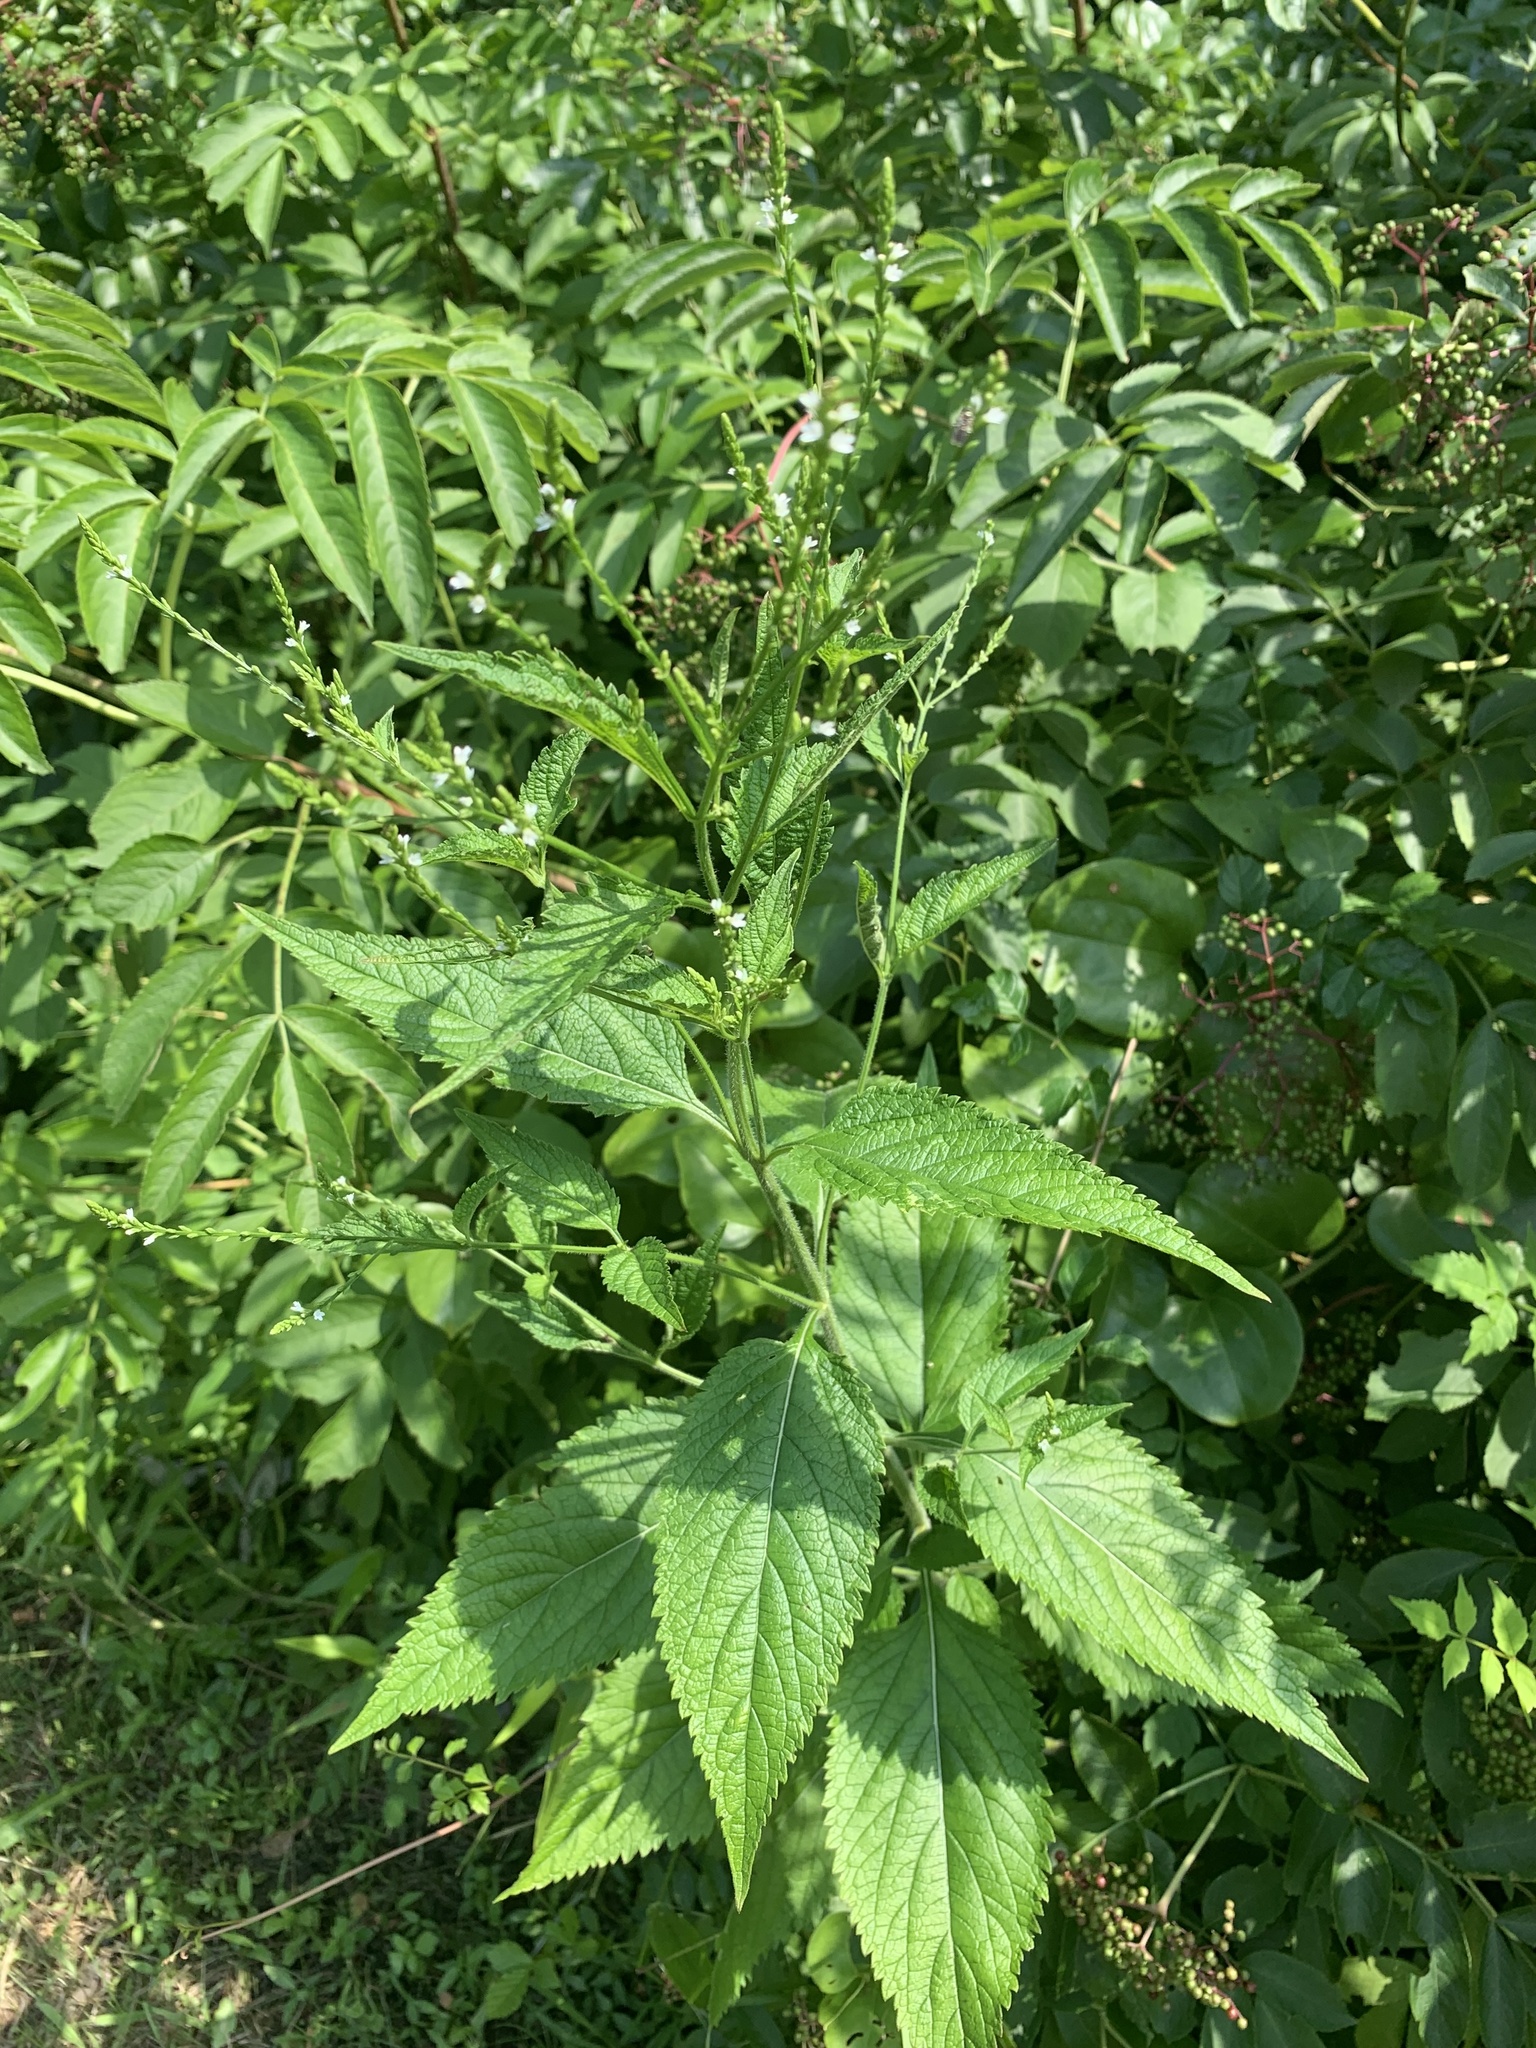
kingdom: Plantae
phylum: Tracheophyta
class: Magnoliopsida
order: Lamiales
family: Verbenaceae
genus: Verbena
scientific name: Verbena urticifolia
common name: Nettle-leaved vervain
